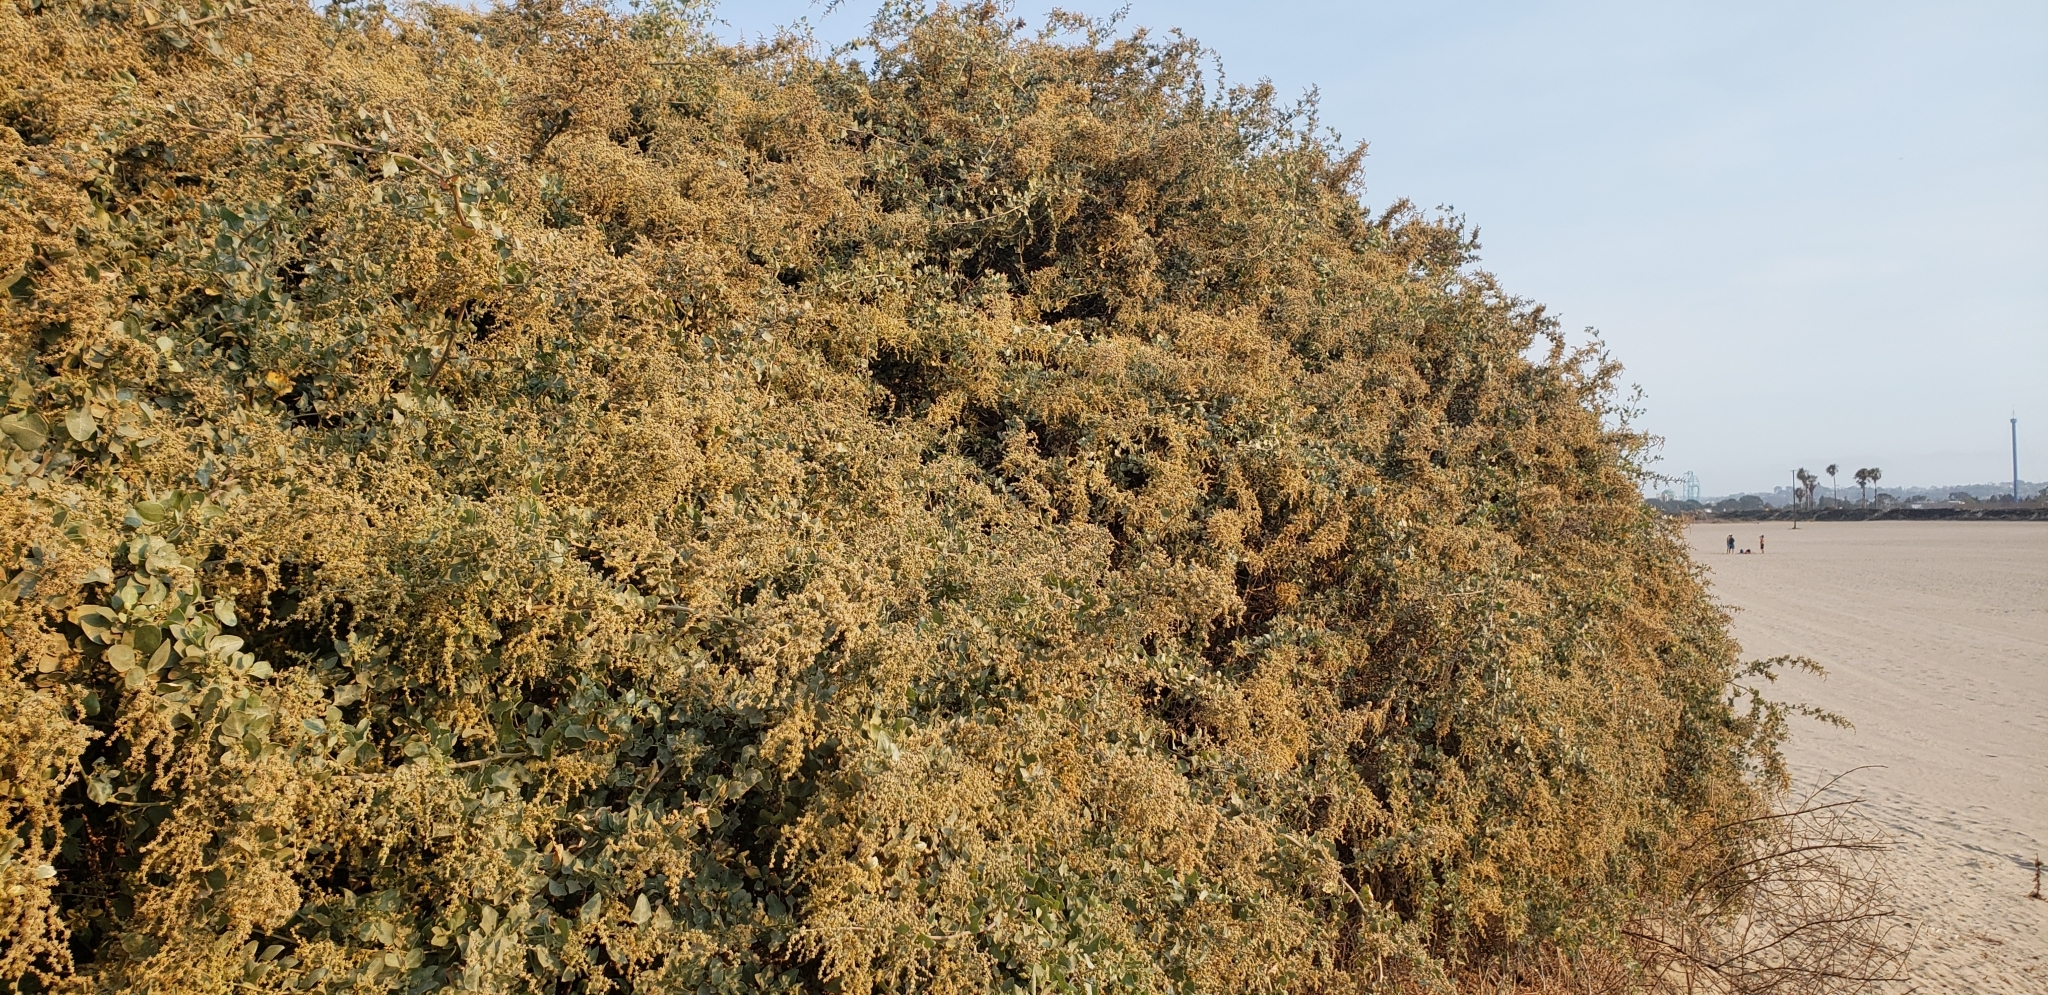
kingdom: Plantae
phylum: Tracheophyta
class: Magnoliopsida
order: Caryophyllales
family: Amaranthaceae
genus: Atriplex
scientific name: Atriplex lentiformis
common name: Big saltbush
